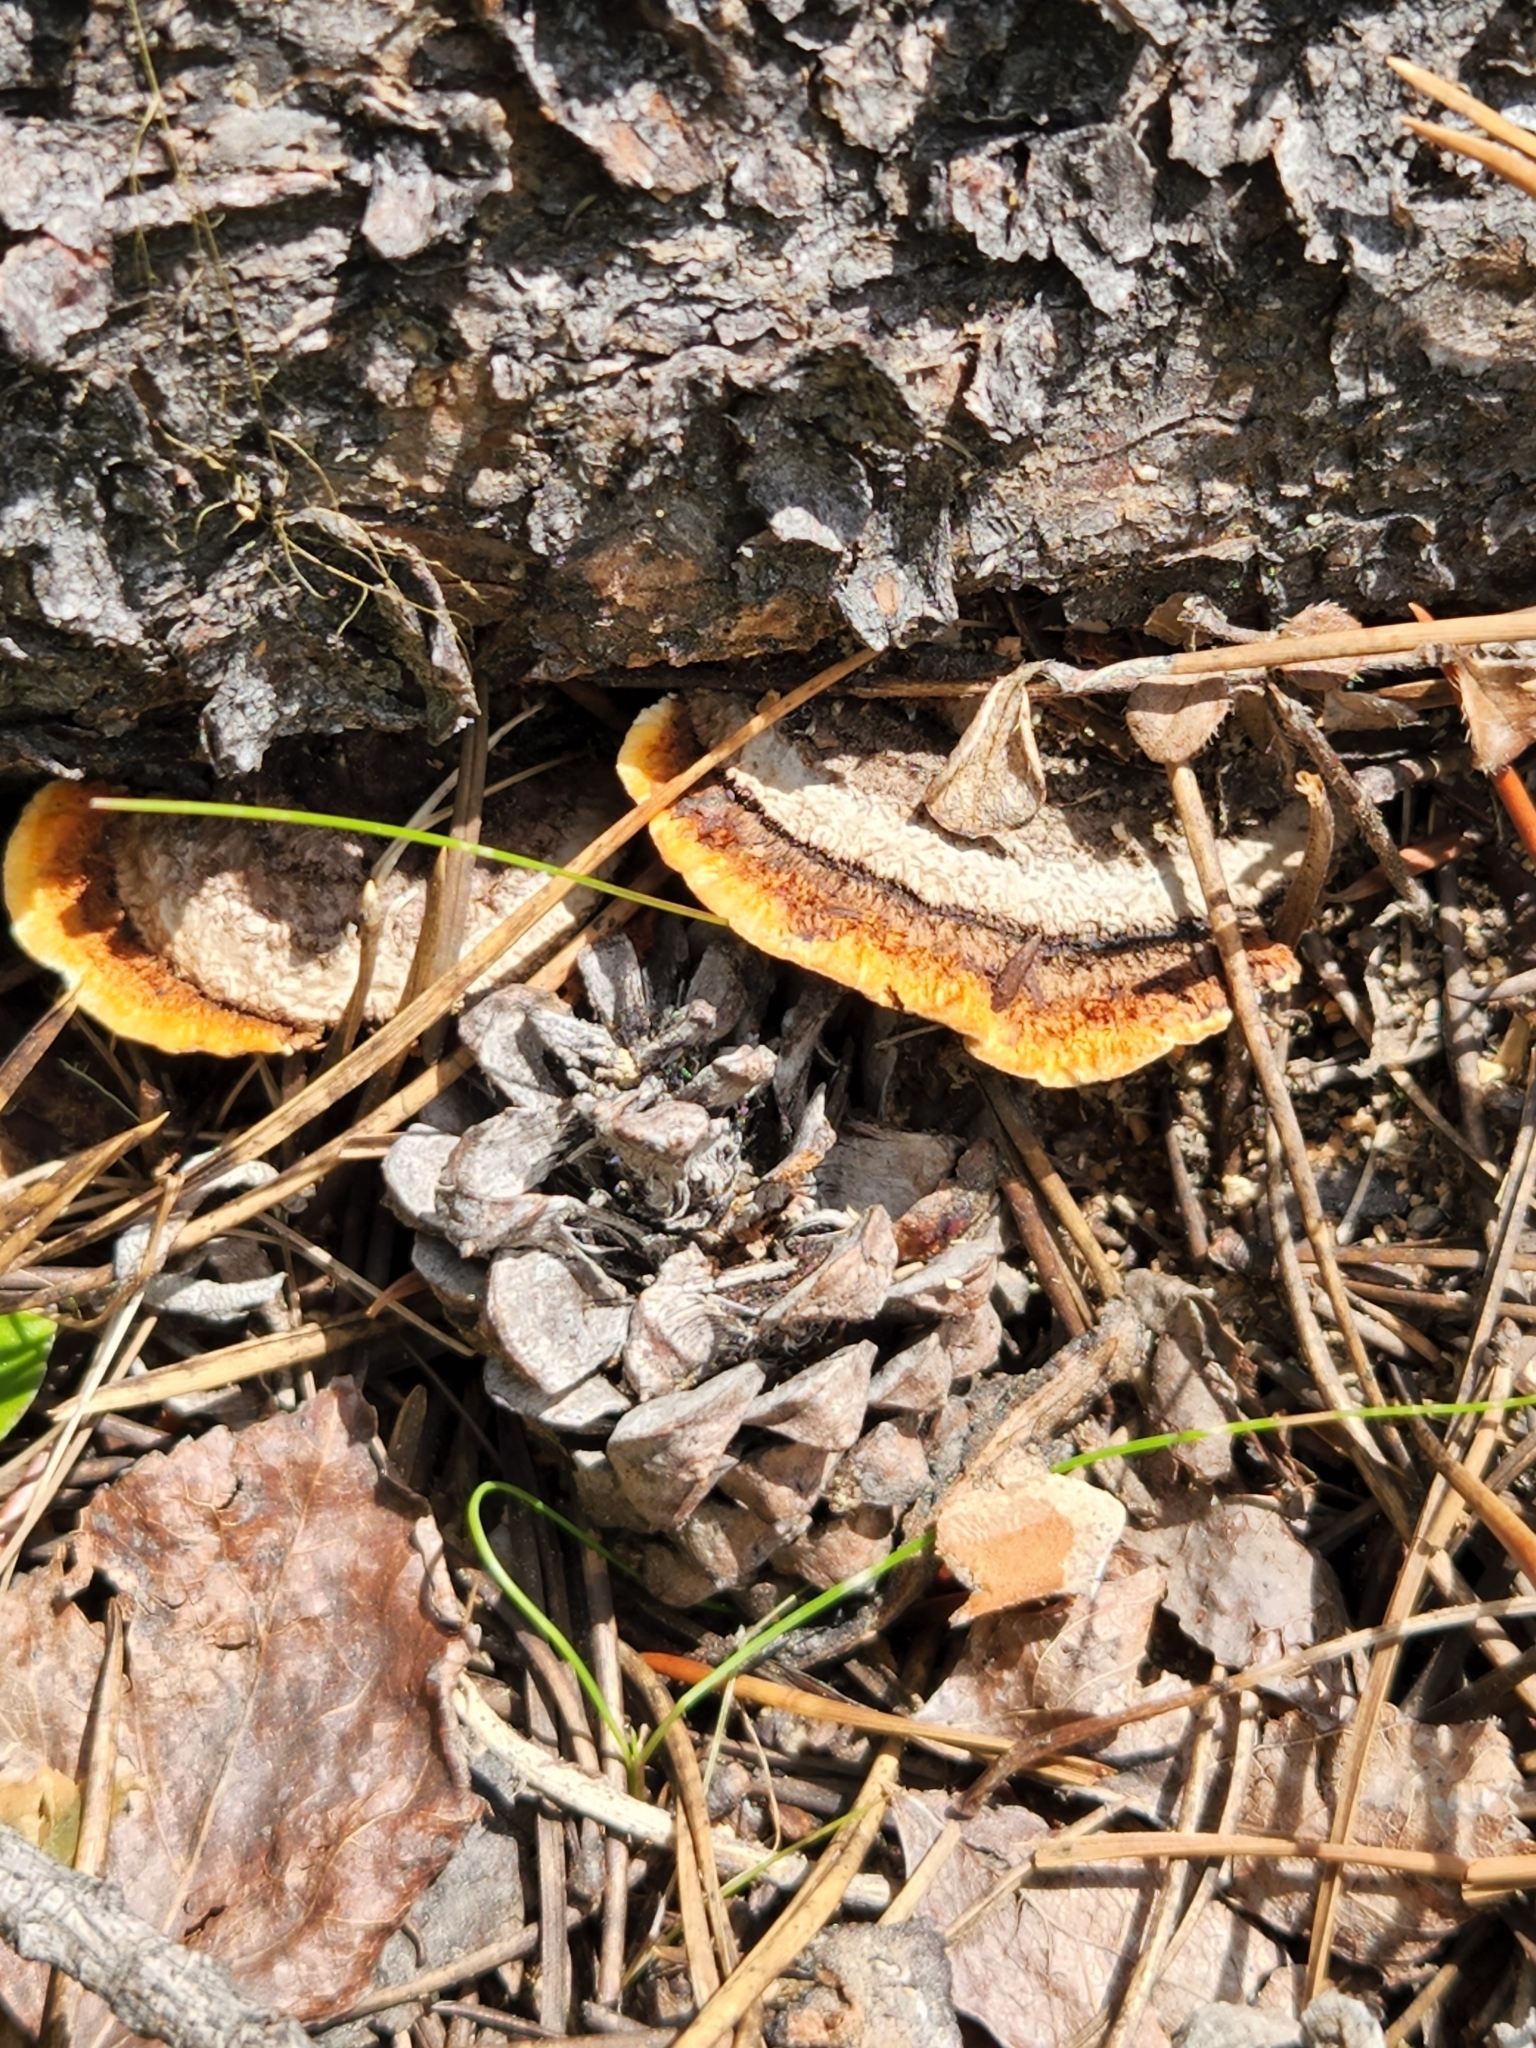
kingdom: Fungi
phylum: Basidiomycota
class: Agaricomycetes
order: Gloeophyllales
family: Gloeophyllaceae
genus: Gloeophyllum
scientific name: Gloeophyllum sepiarium
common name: Conifer mazegill
